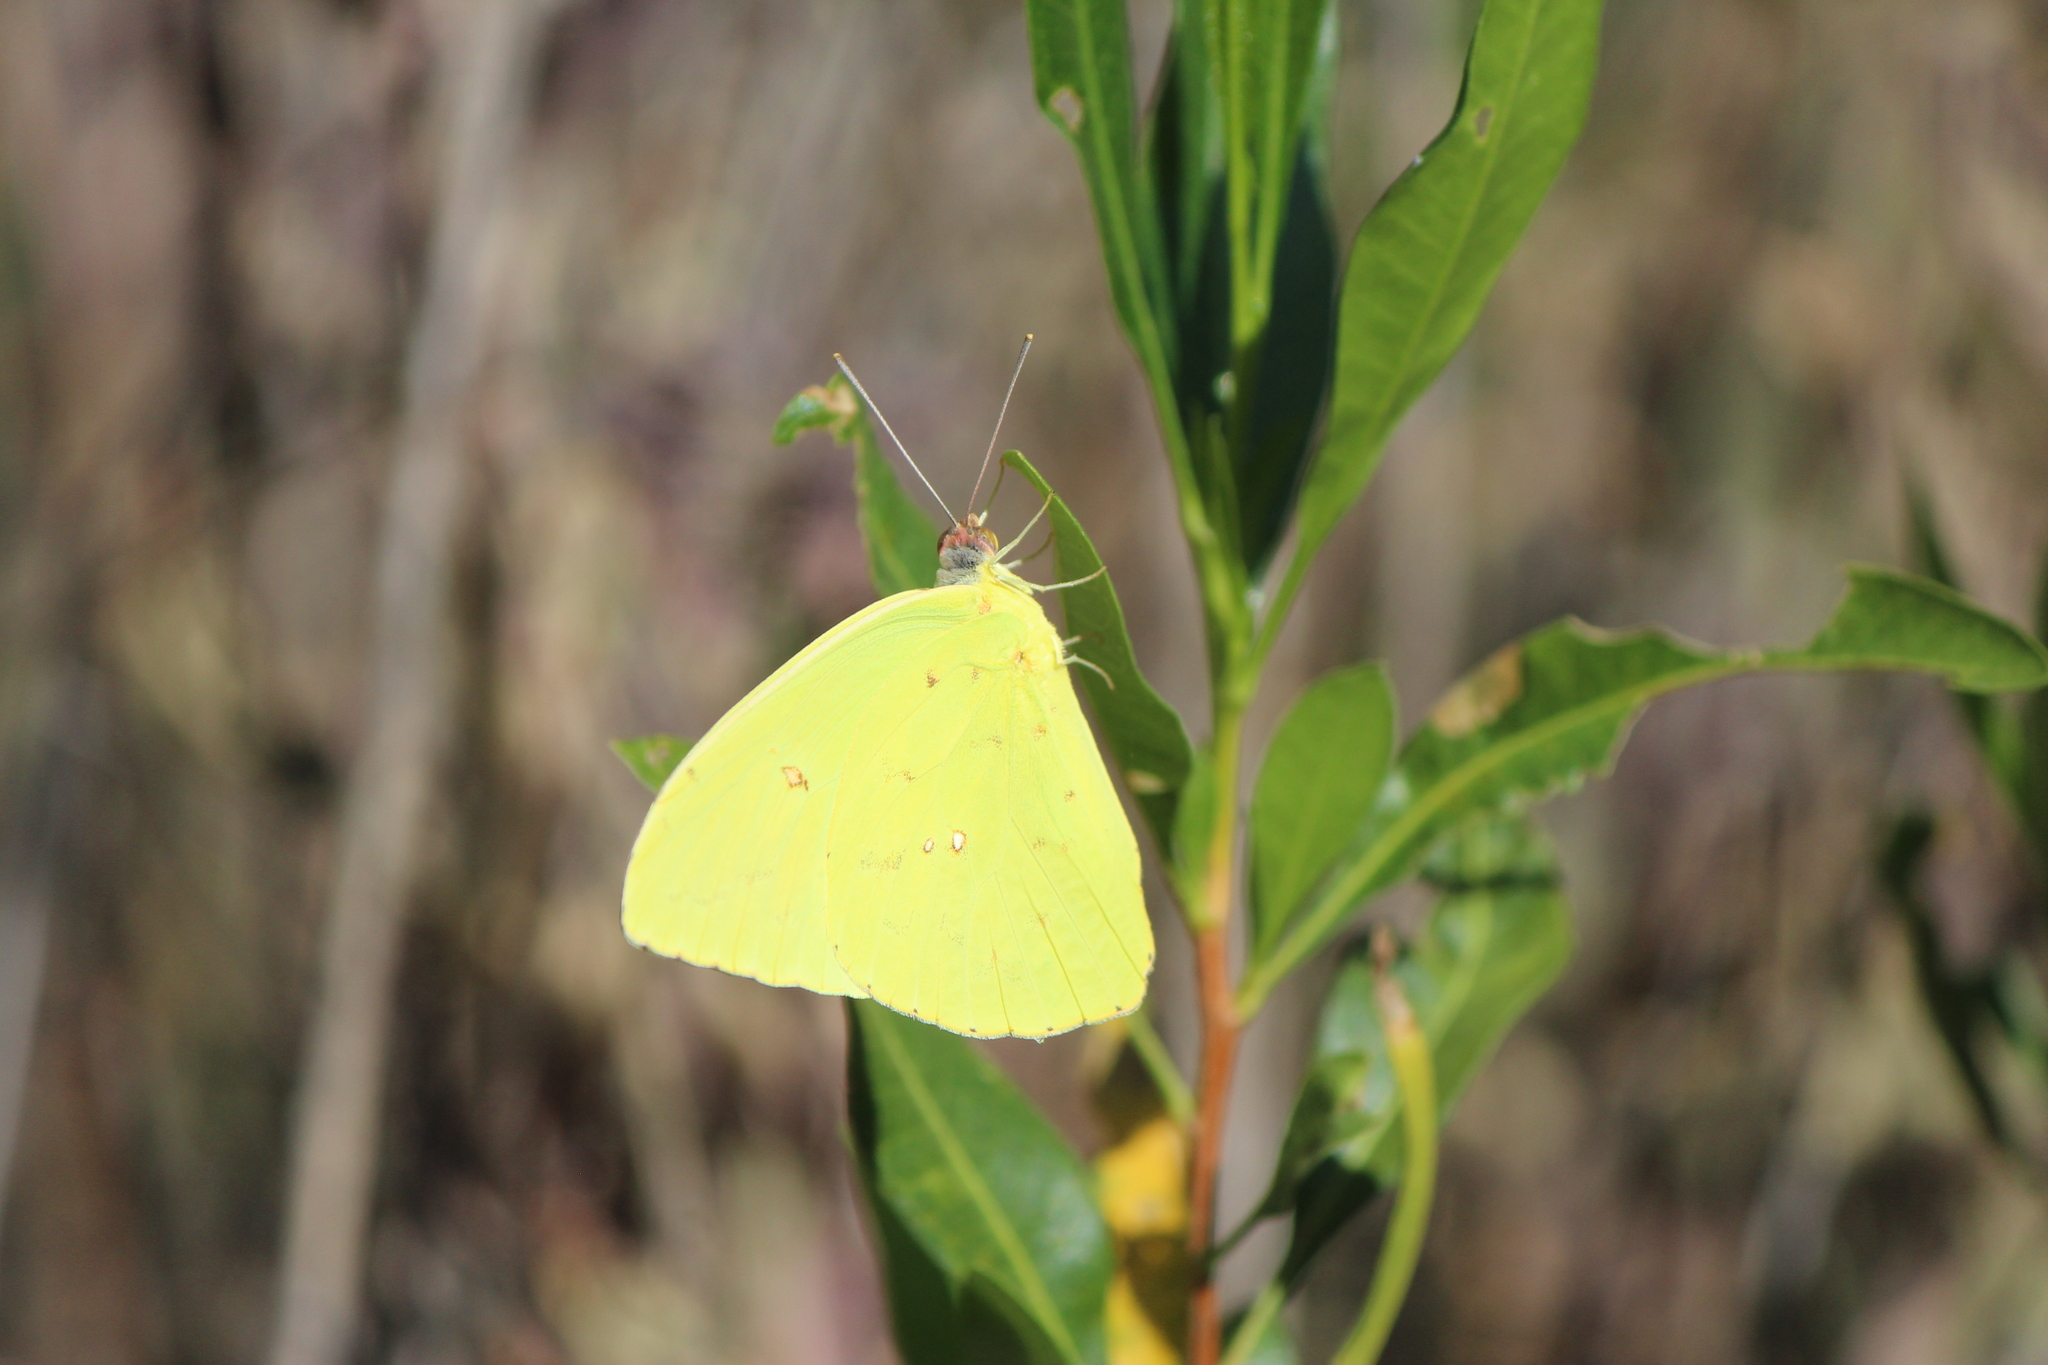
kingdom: Animalia
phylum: Arthropoda
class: Insecta
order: Lepidoptera
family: Pieridae
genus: Phoebis
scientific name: Phoebis sennae
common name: Cloudless sulphur
